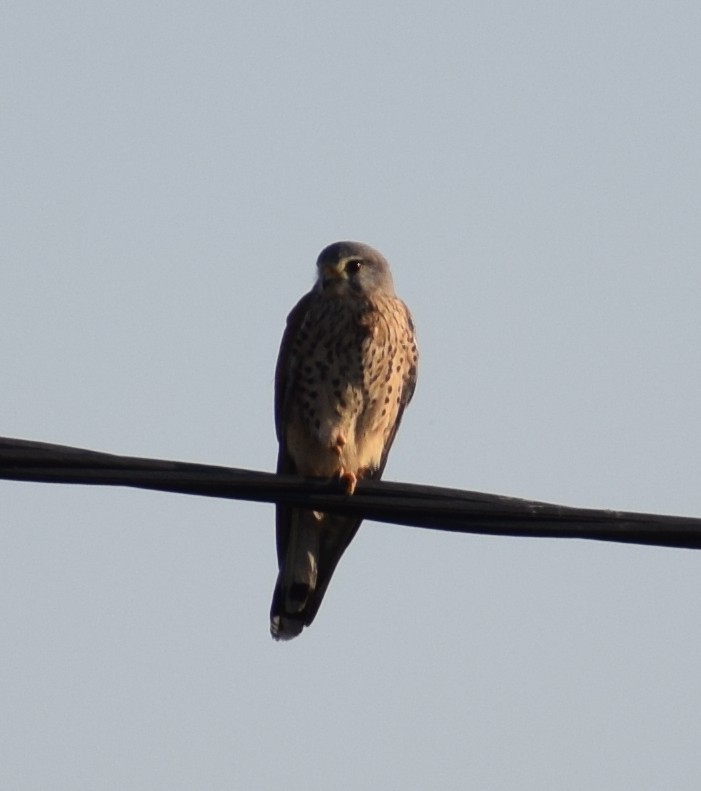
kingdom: Animalia
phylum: Chordata
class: Aves
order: Falconiformes
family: Falconidae
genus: Falco
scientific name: Falco tinnunculus
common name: Common kestrel
